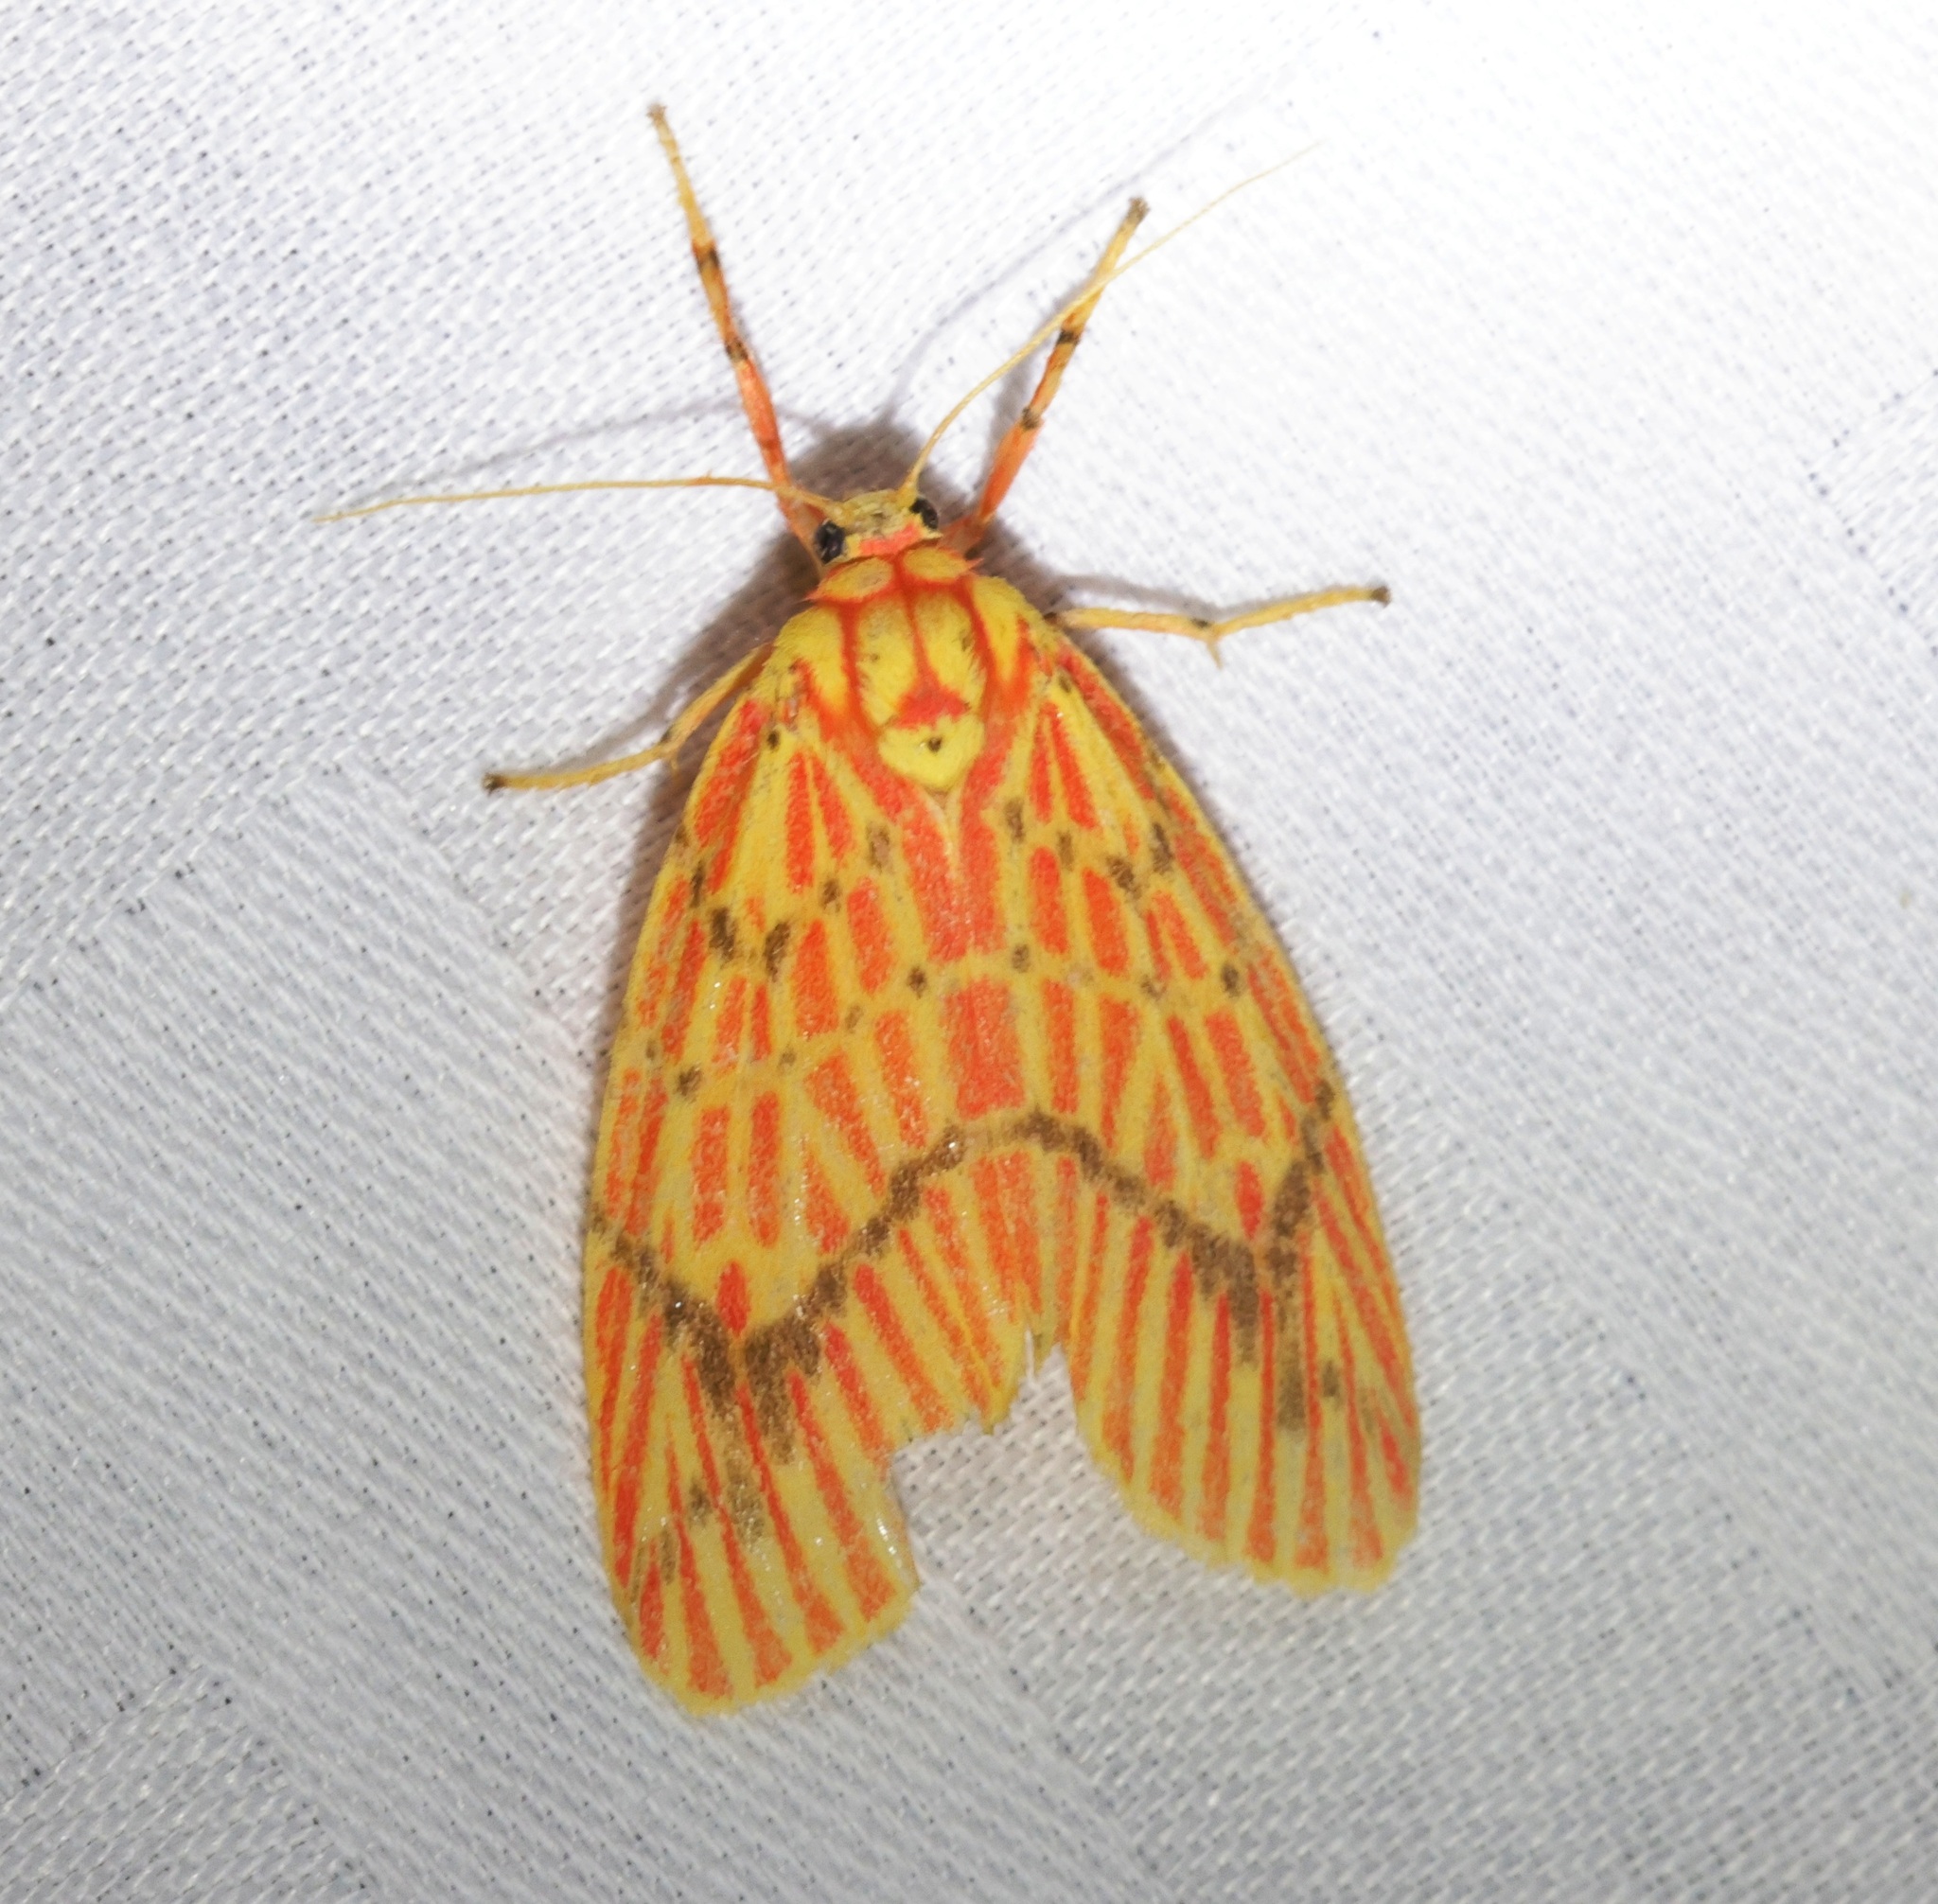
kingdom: Animalia
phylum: Arthropoda
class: Insecta
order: Lepidoptera
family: Erebidae
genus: Barsine
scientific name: Barsine striata
